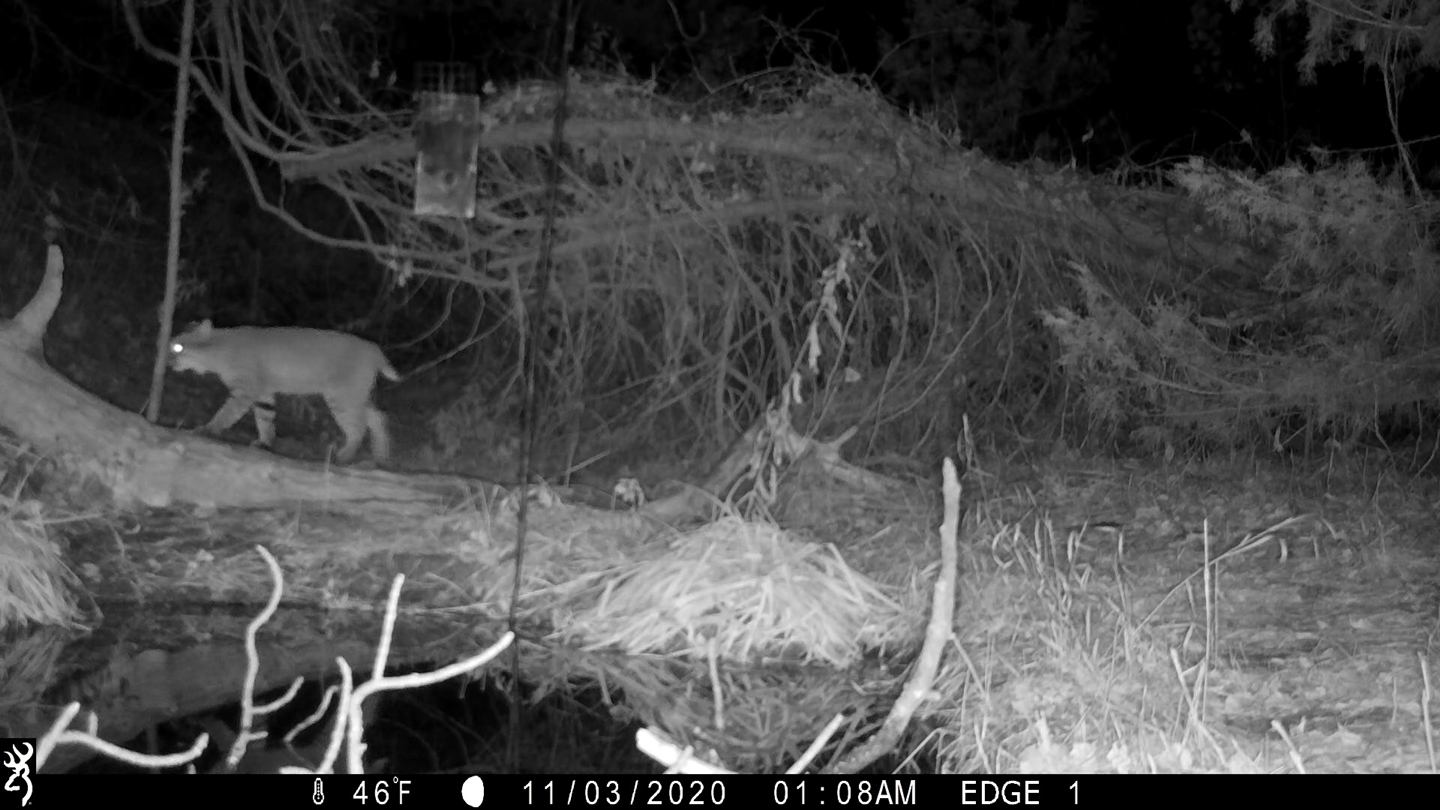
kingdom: Animalia
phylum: Chordata
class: Mammalia
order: Carnivora
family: Felidae
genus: Lynx
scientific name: Lynx rufus
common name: Bobcat
